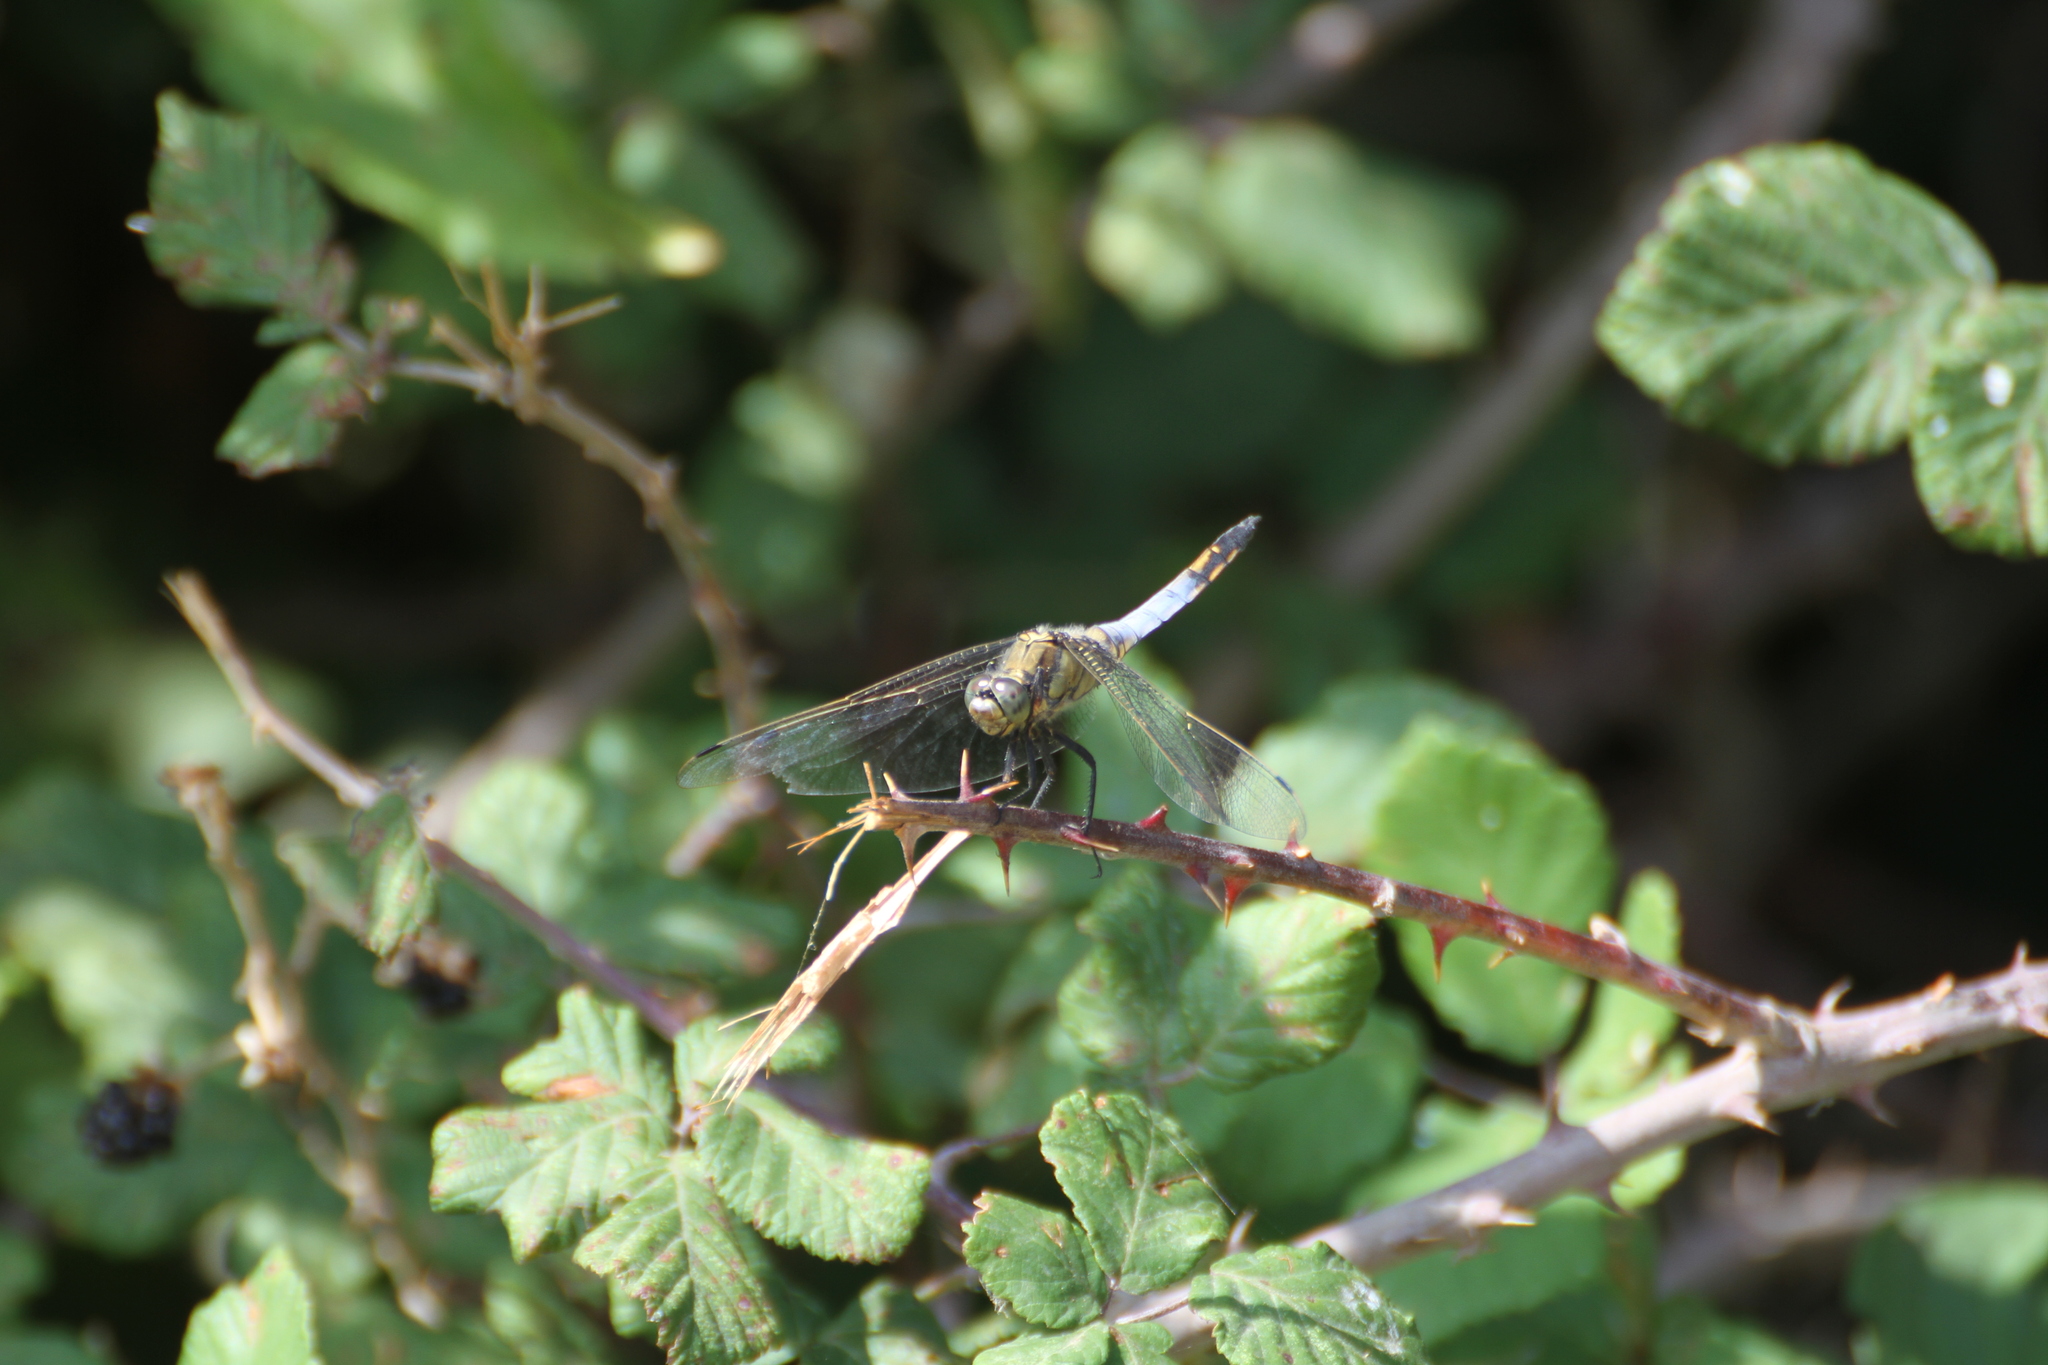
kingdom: Animalia
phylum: Arthropoda
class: Insecta
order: Odonata
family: Libellulidae
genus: Orthetrum
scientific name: Orthetrum cancellatum
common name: Black-tailed skimmer
